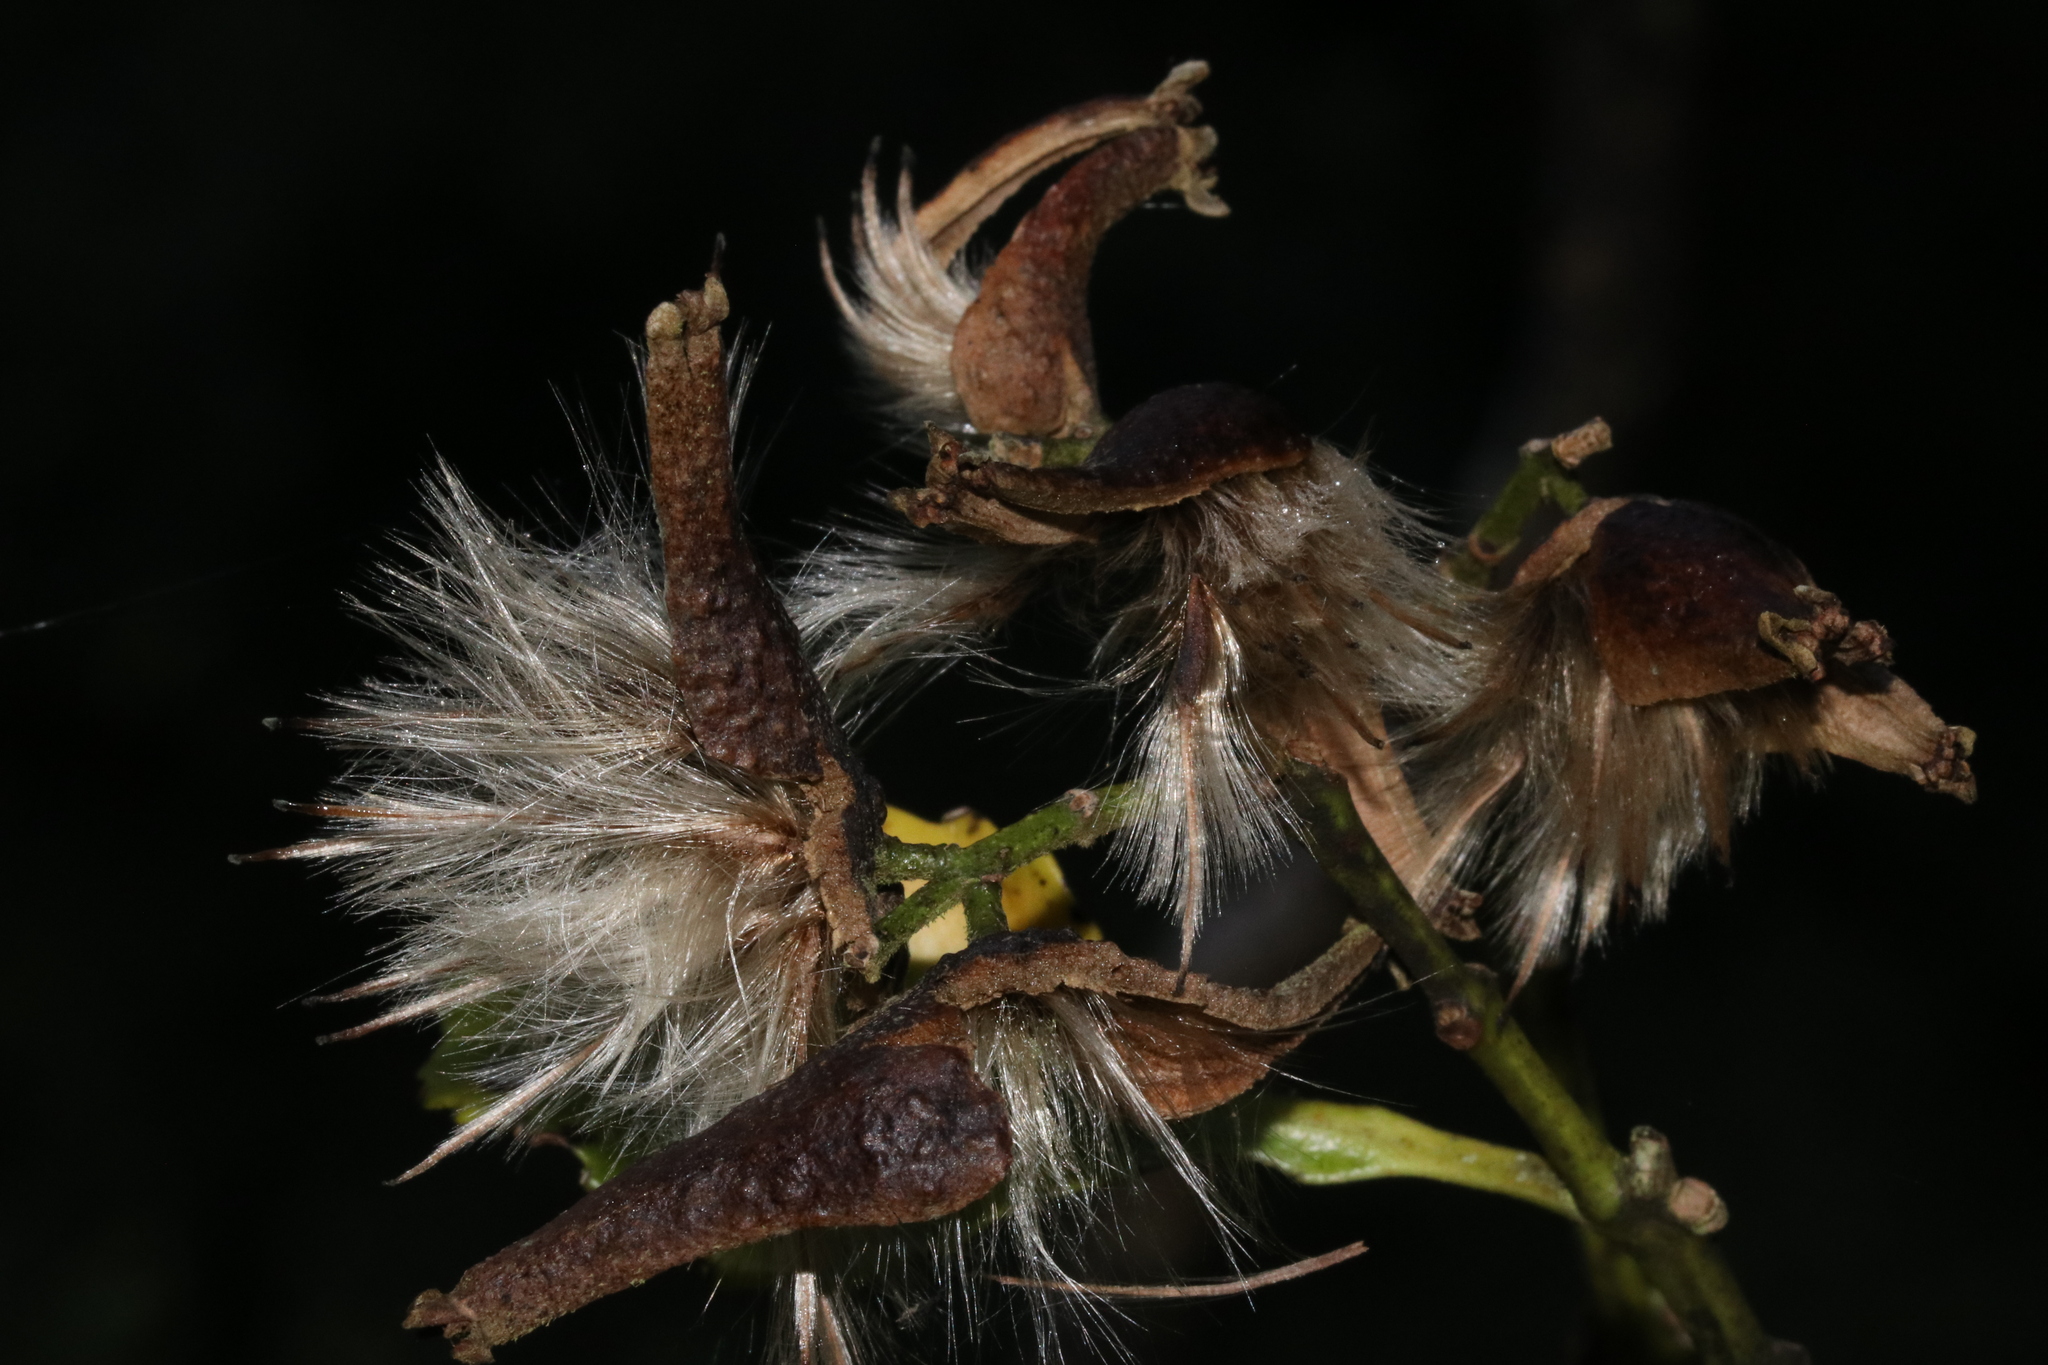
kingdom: Plantae
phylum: Tracheophyta
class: Magnoliopsida
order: Laurales
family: Atherospermataceae
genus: Laurelia
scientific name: Laurelia novae-zelandiae
